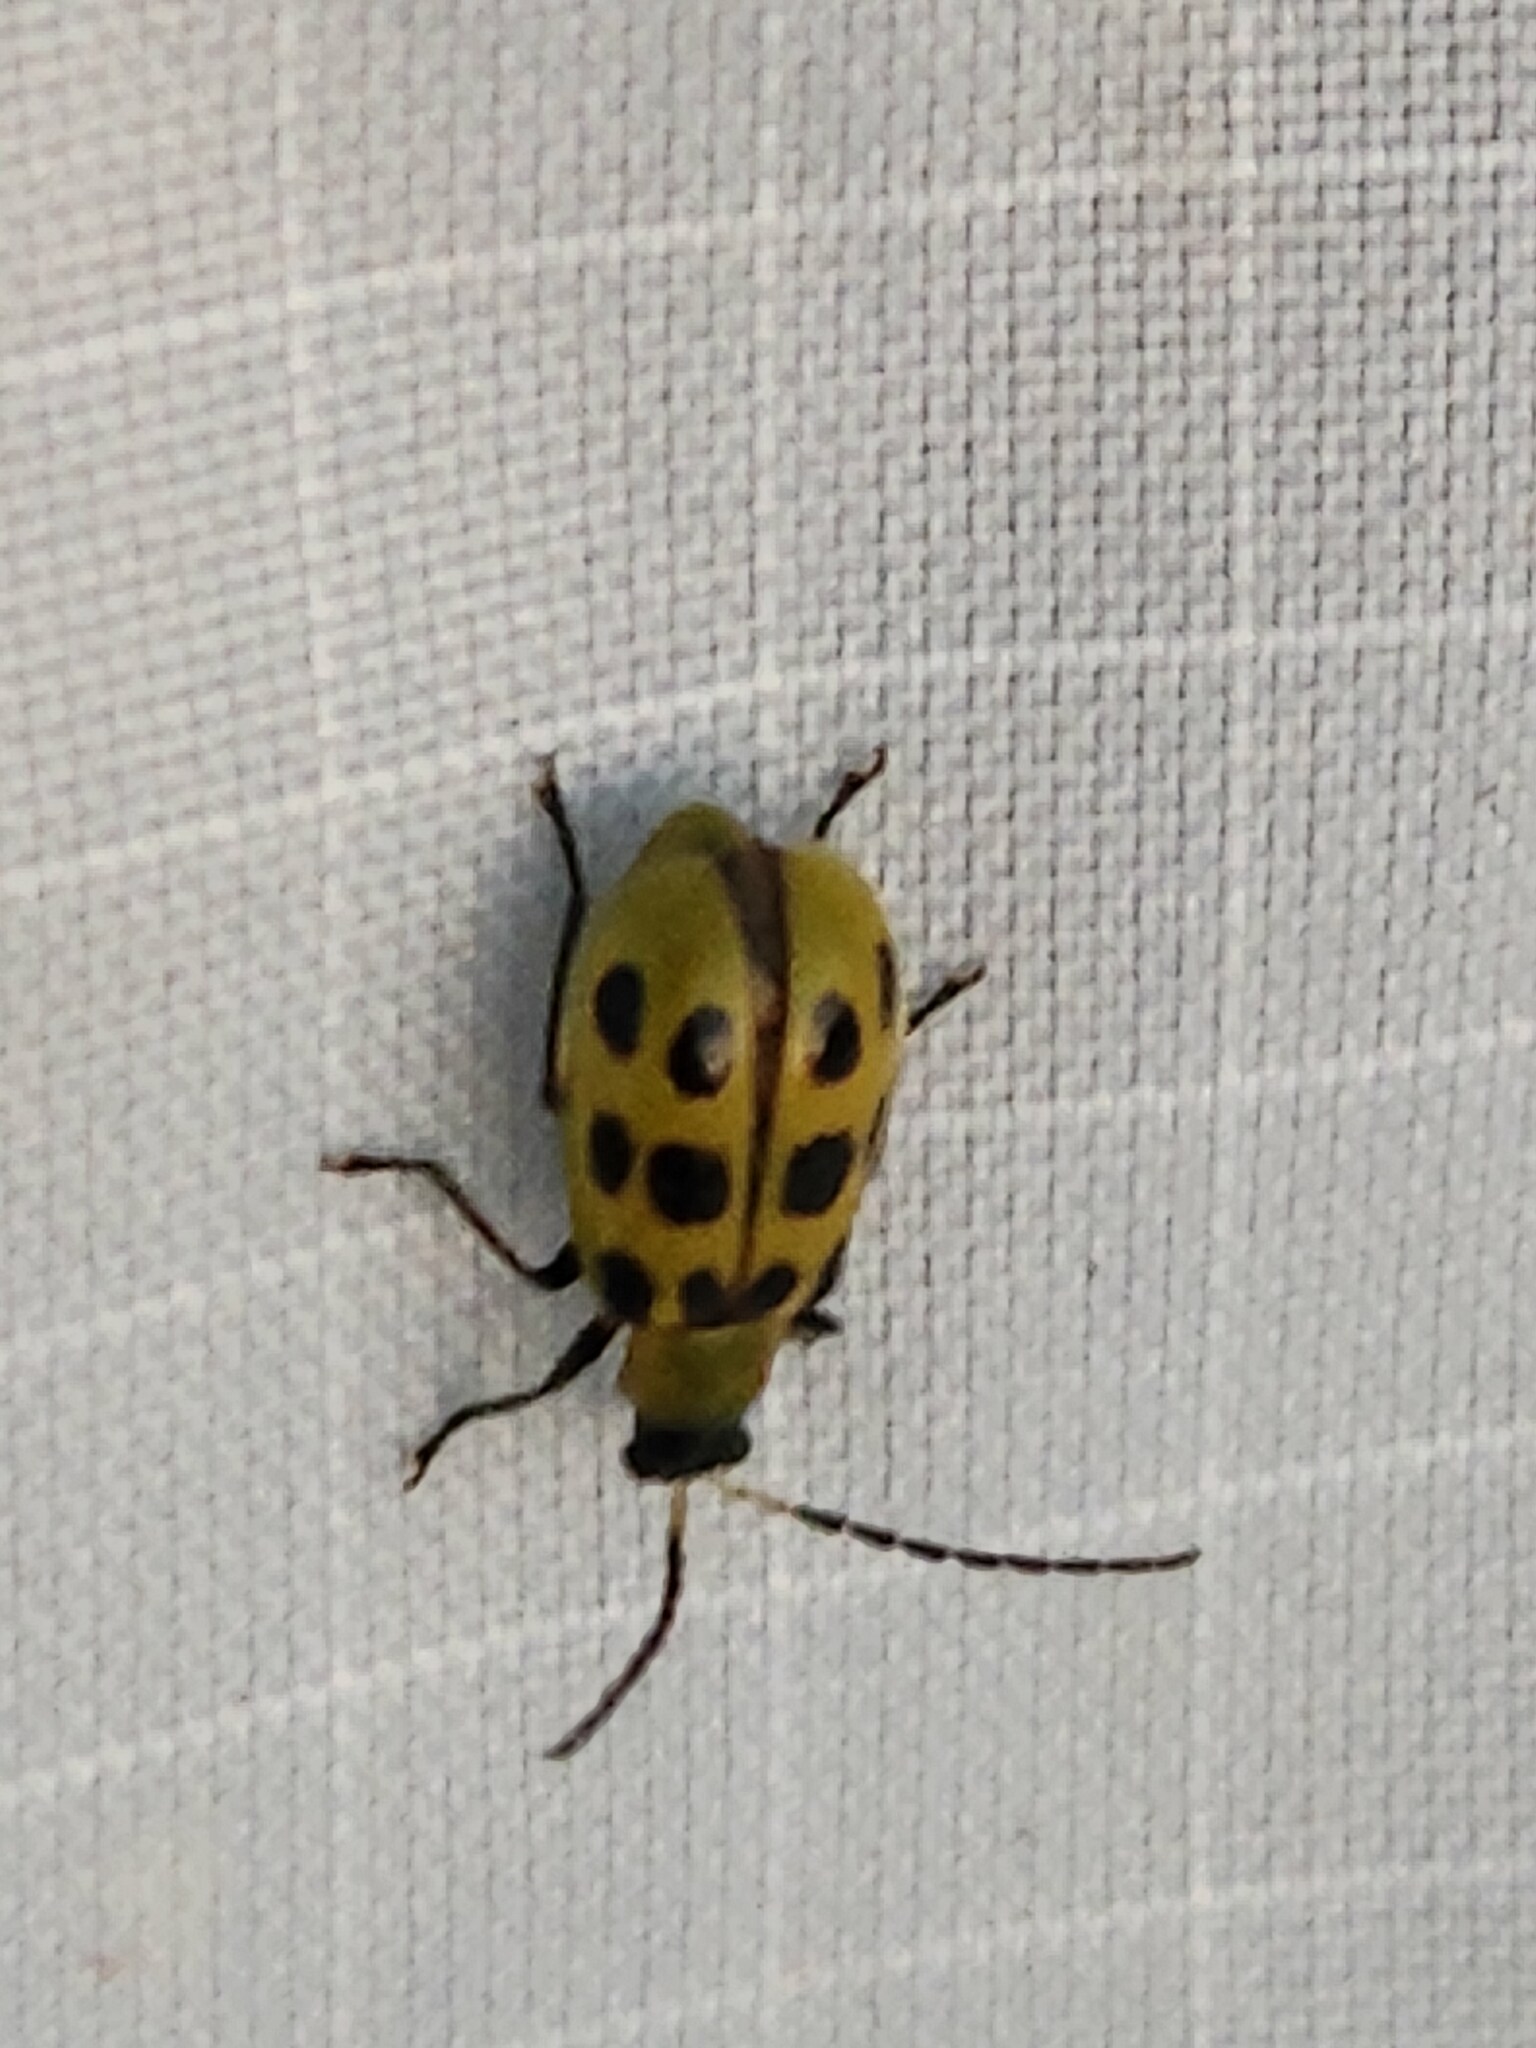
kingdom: Animalia
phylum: Arthropoda
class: Insecta
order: Coleoptera
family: Chrysomelidae
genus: Diabrotica
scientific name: Diabrotica undecimpunctata
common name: Spotted cucumber beetle
